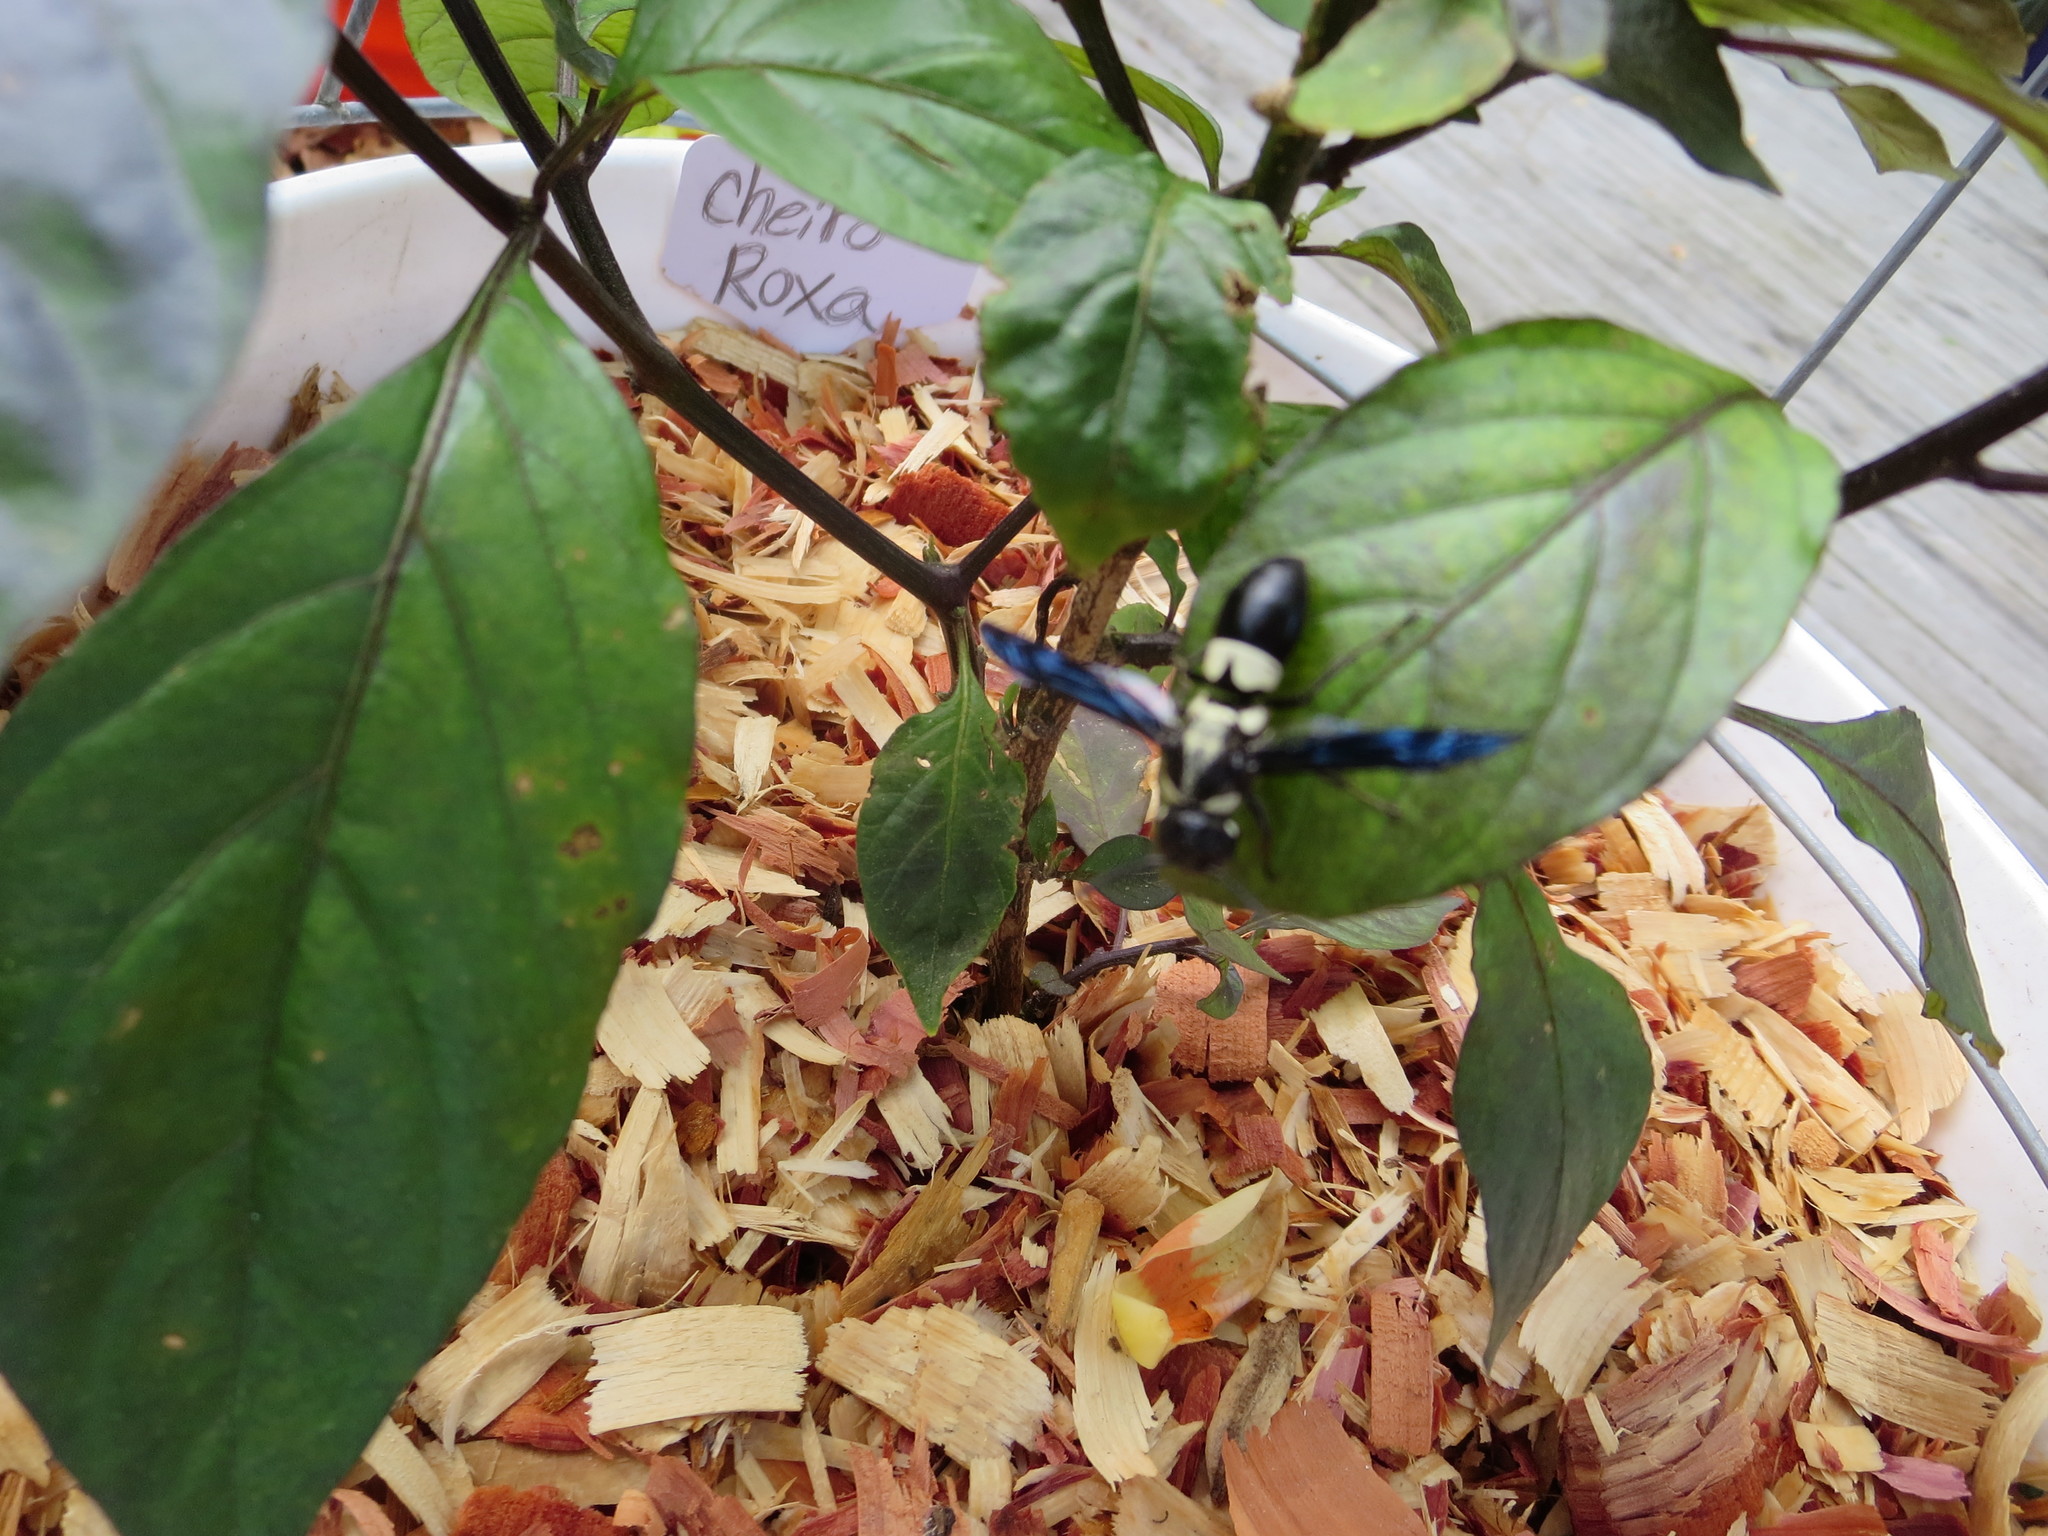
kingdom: Animalia
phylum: Arthropoda
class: Insecta
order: Hymenoptera
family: Eumenidae
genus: Euodynerus
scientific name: Euodynerus bidens
